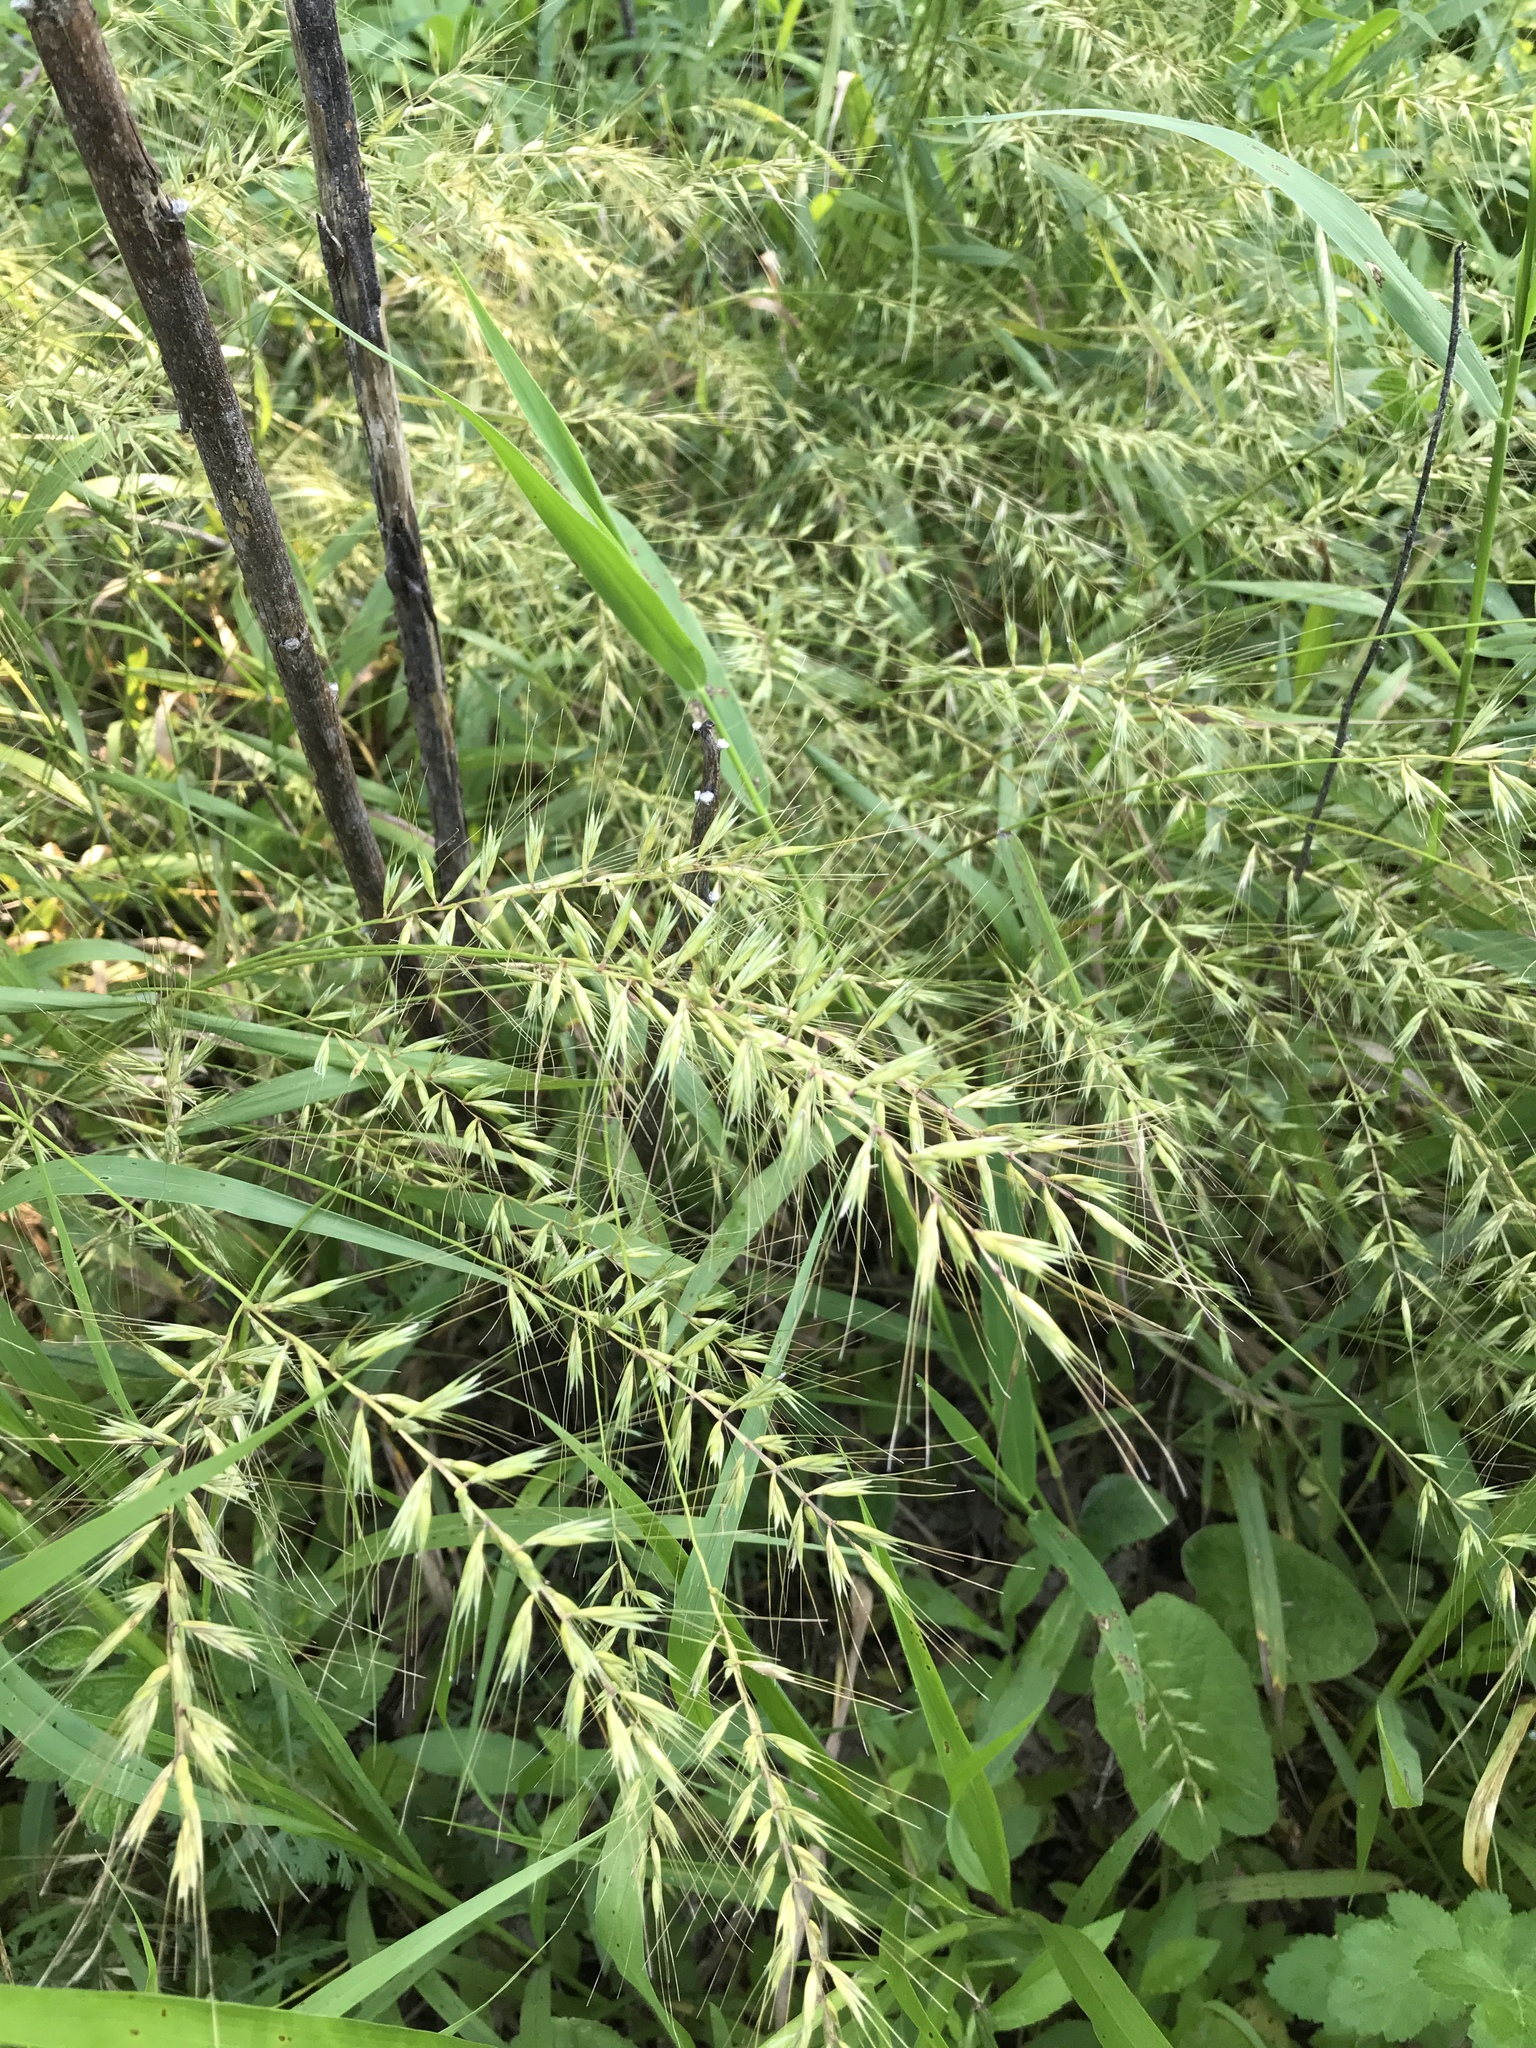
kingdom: Plantae
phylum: Tracheophyta
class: Liliopsida
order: Poales
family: Poaceae
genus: Elymus
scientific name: Elymus hystrix
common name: Bottlebrush grass
